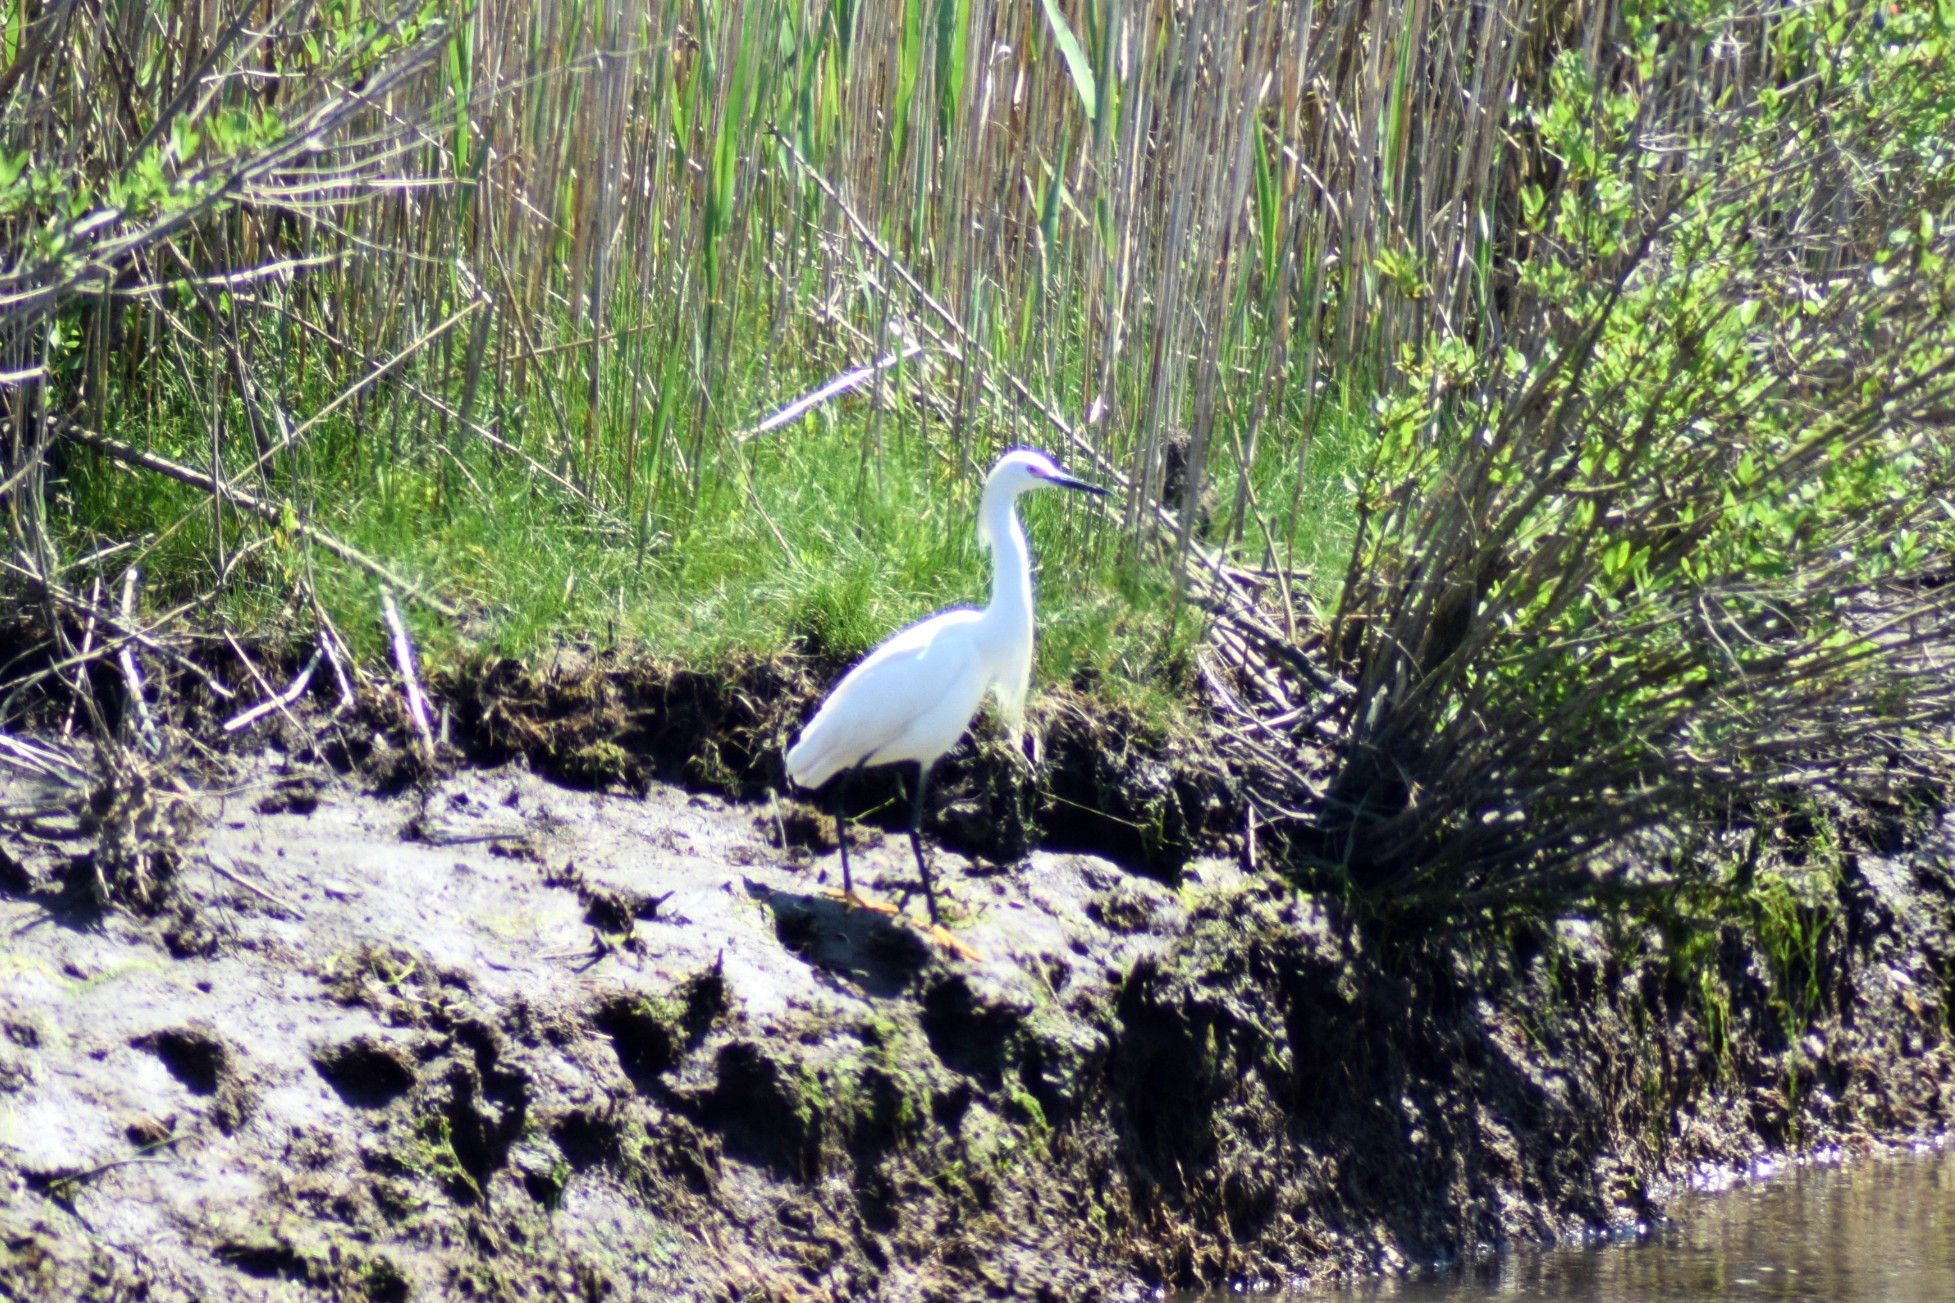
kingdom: Animalia
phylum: Chordata
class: Aves
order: Pelecaniformes
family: Ardeidae
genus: Egretta
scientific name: Egretta thula
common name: Snowy egret
